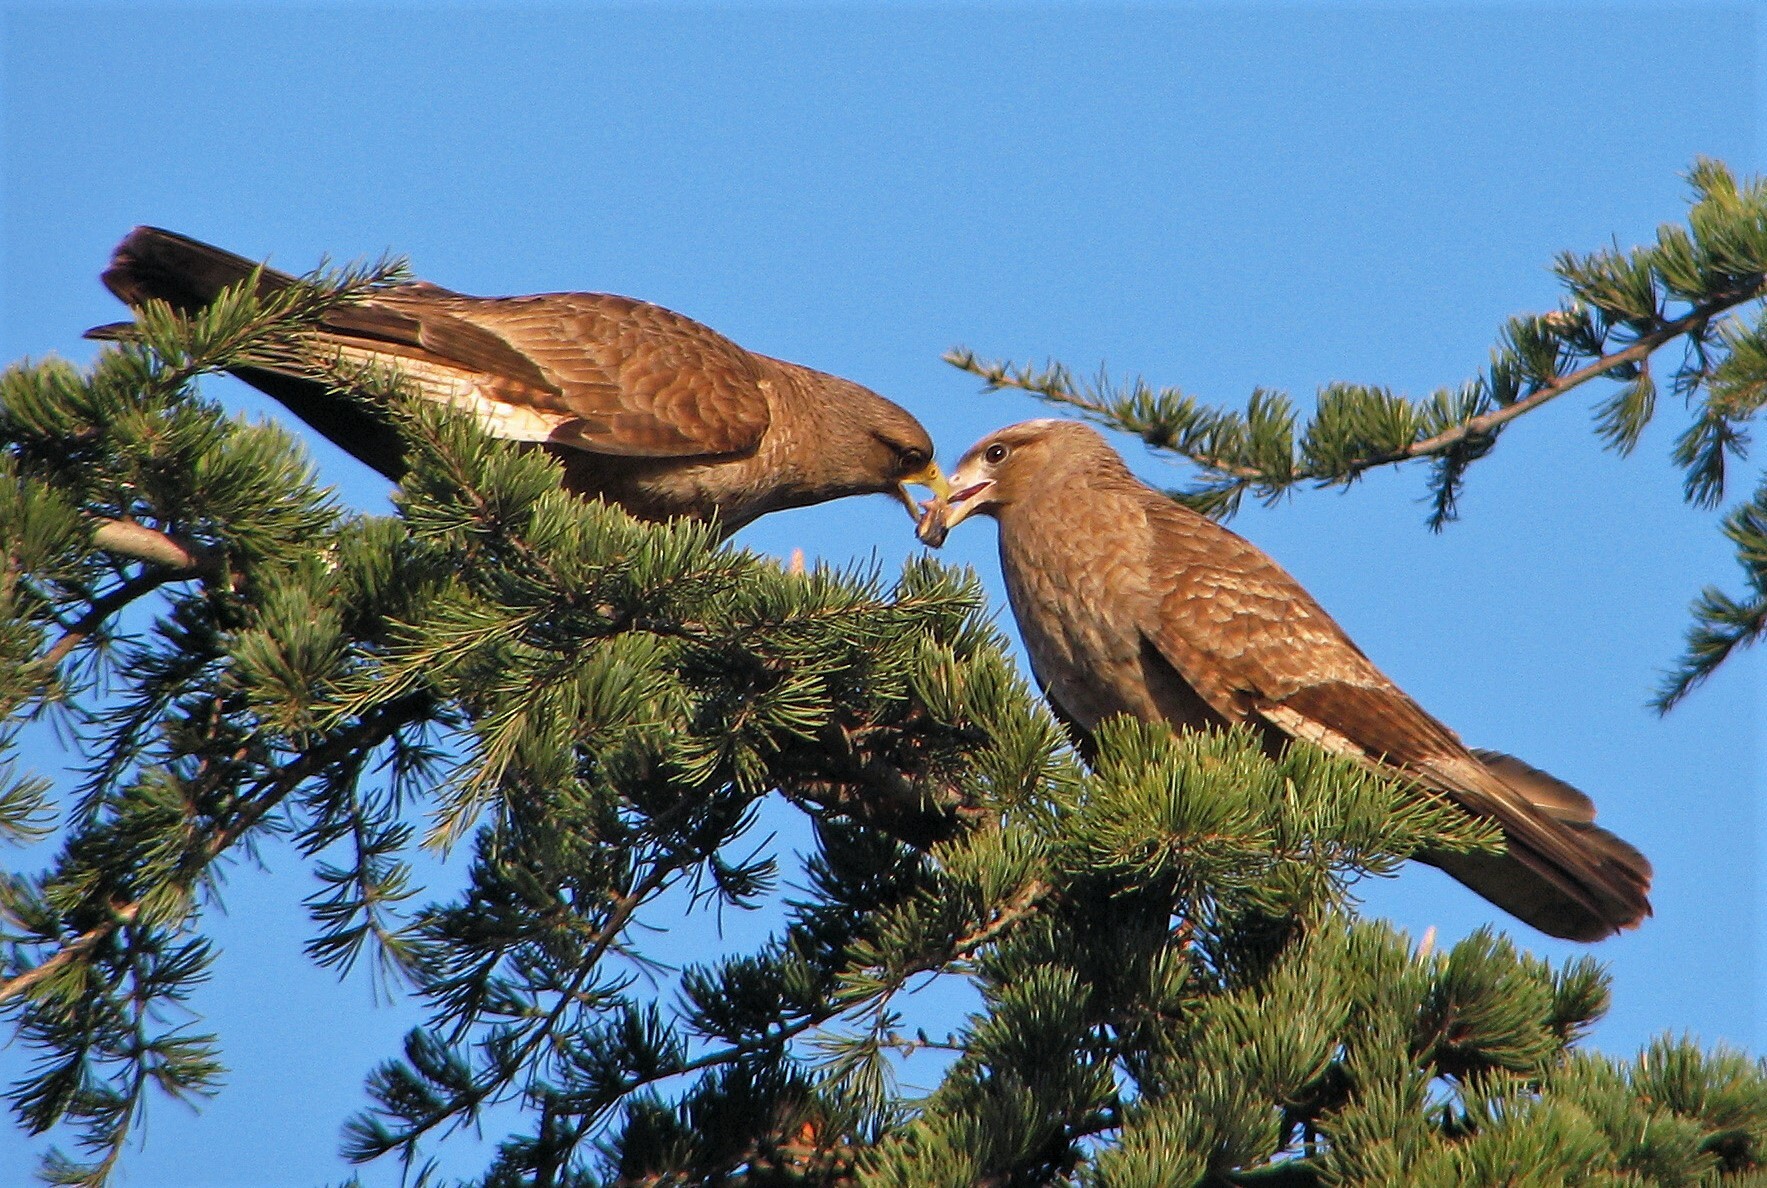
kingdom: Animalia
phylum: Chordata
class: Aves
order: Falconiformes
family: Falconidae
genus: Daptrius
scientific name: Daptrius
